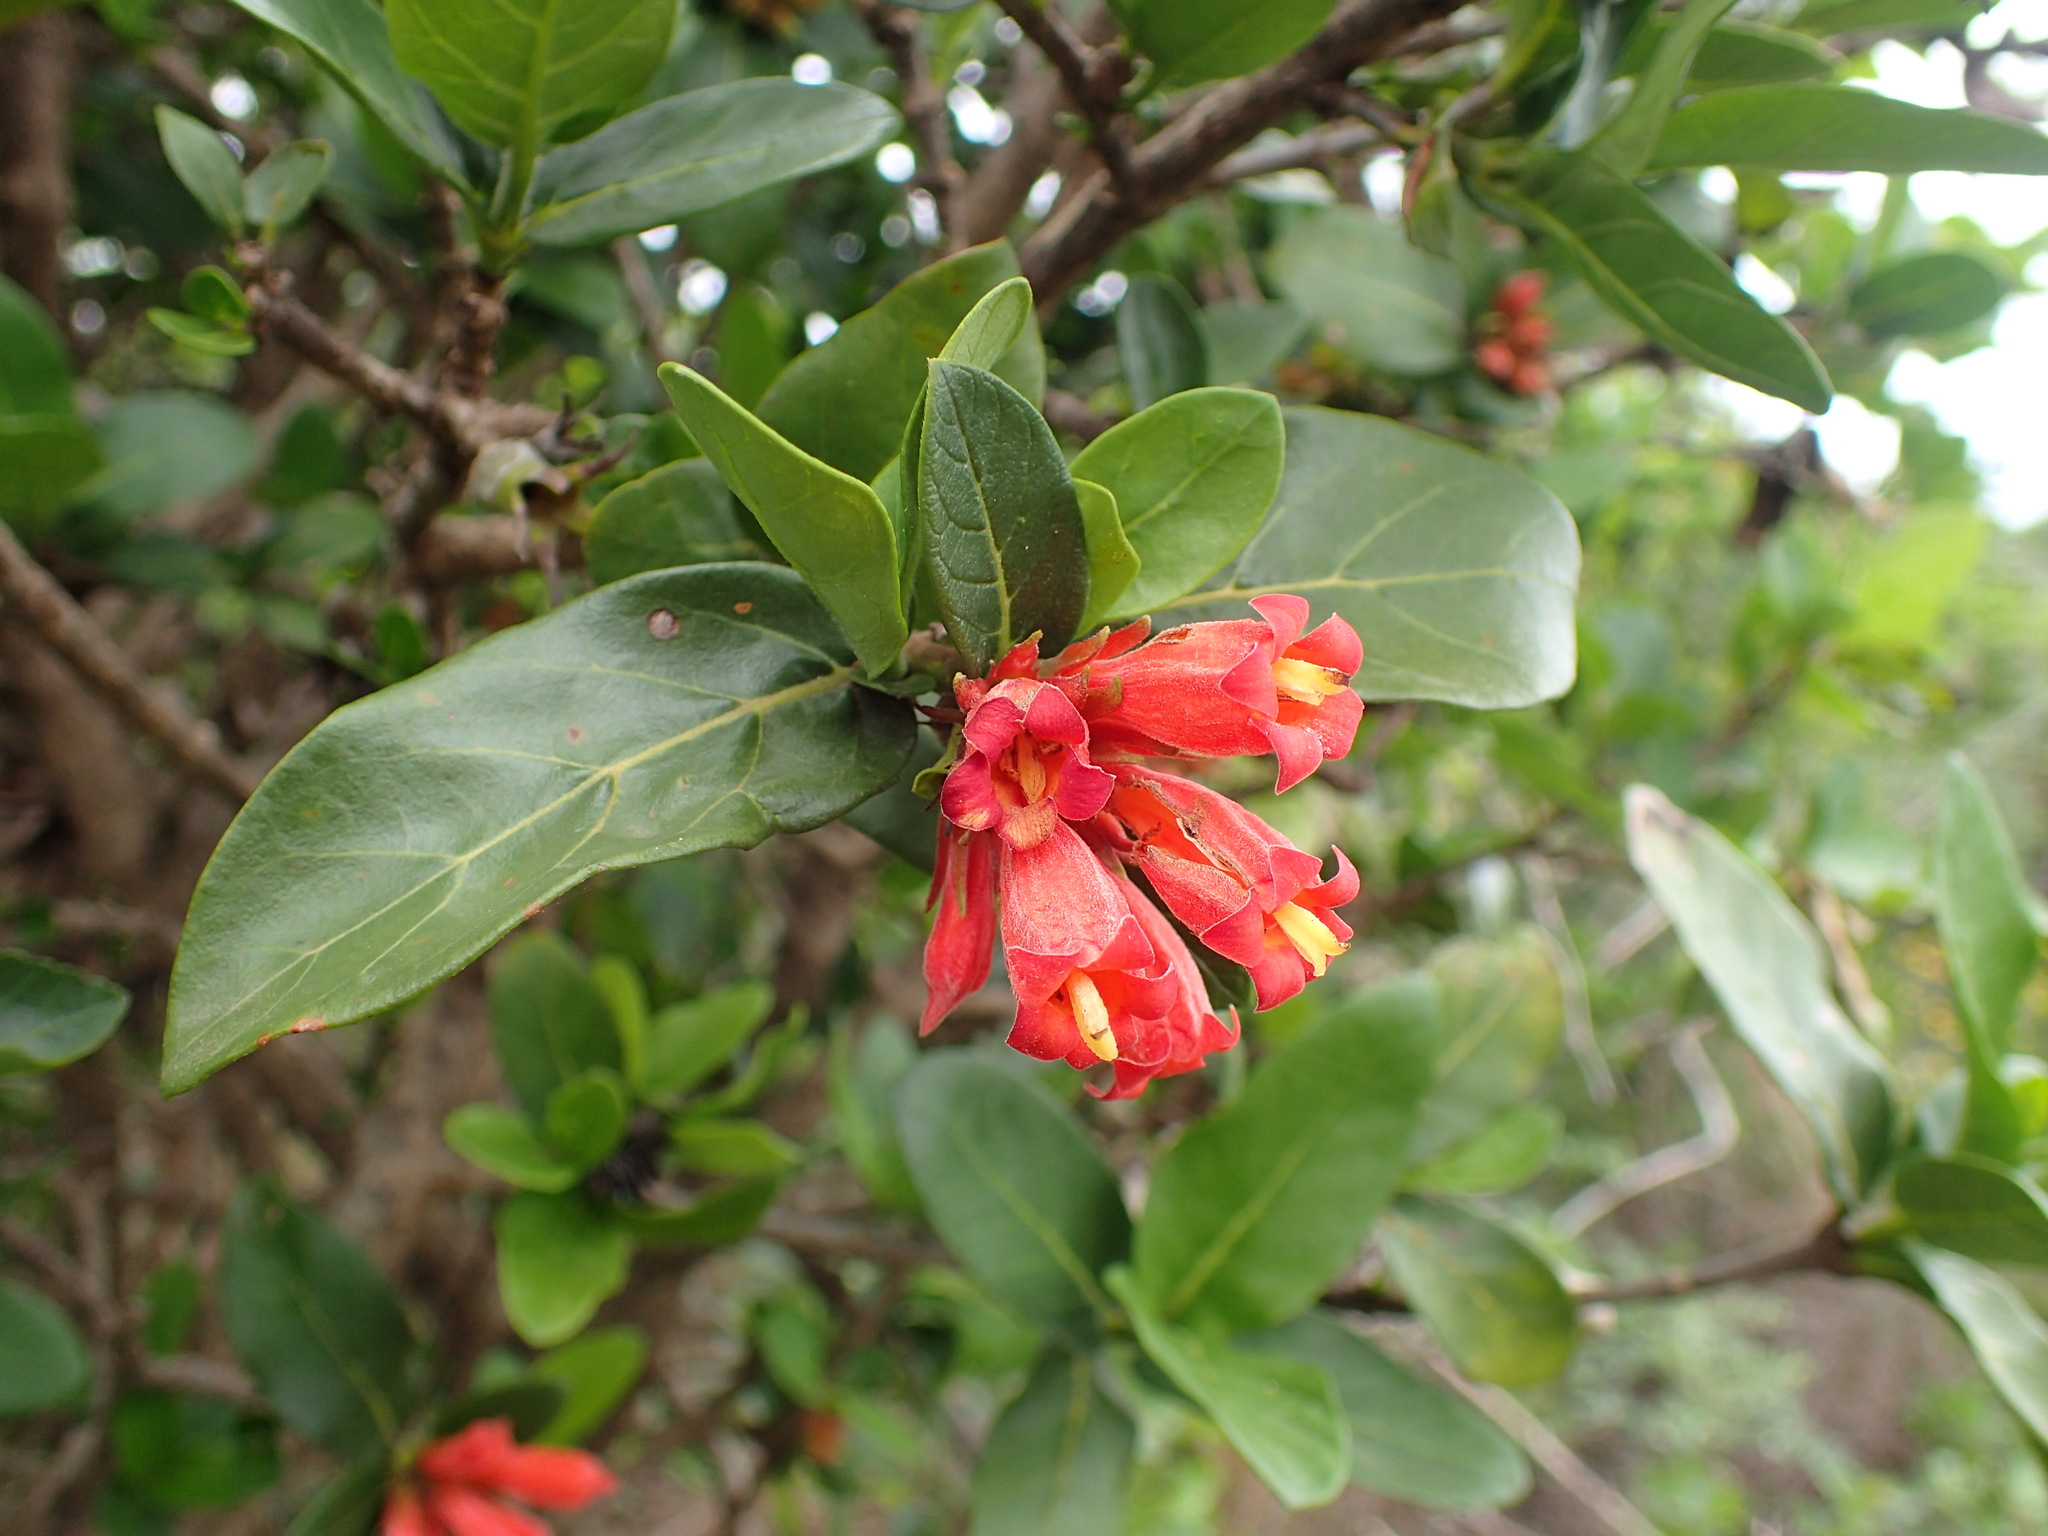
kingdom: Plantae
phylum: Tracheophyta
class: Magnoliopsida
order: Gentianales
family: Rubiaceae
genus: Burchellia
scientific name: Burchellia bubalina
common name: Wild pomegranate
